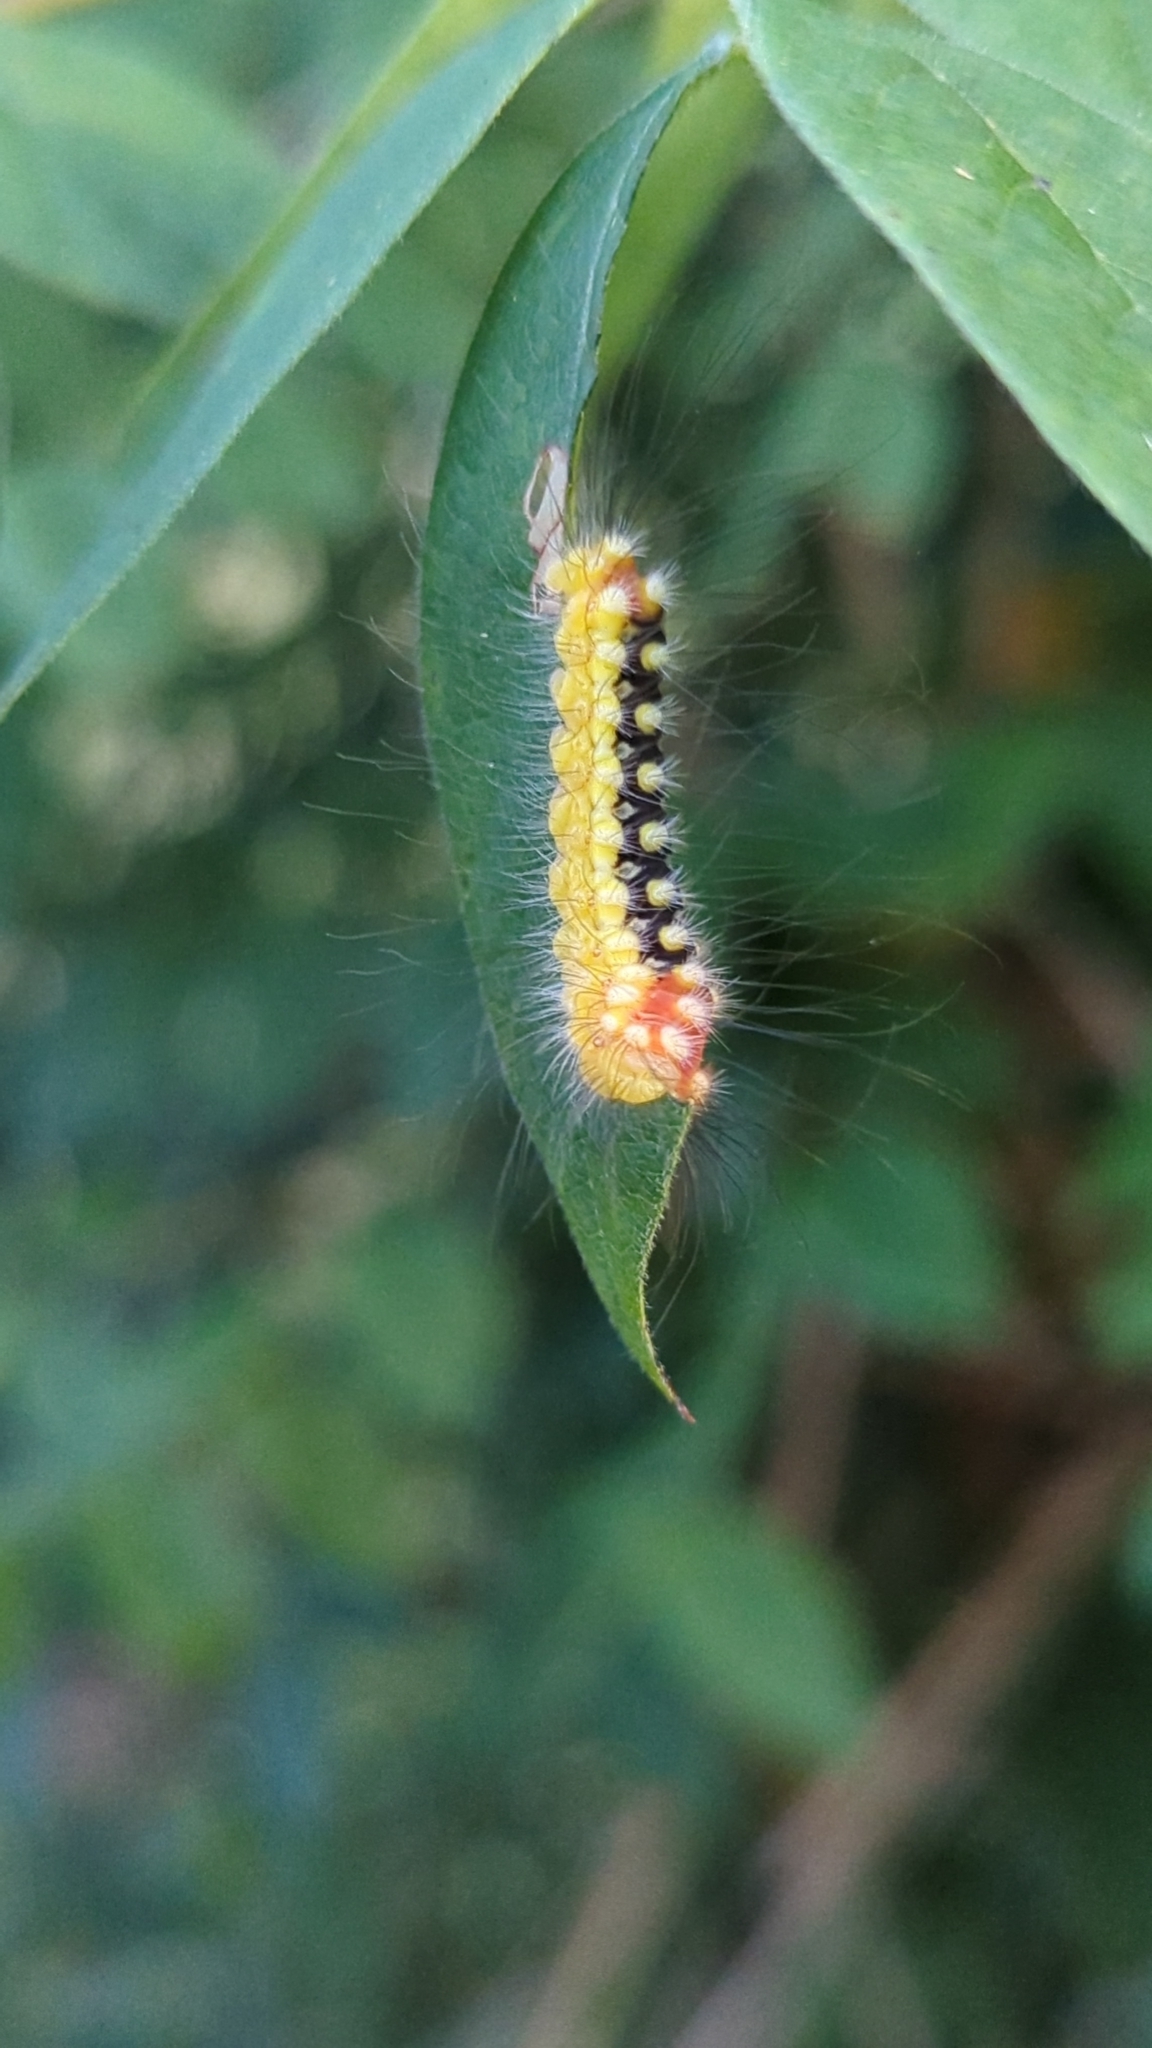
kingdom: Animalia
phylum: Arthropoda
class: Insecta
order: Lepidoptera
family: Megalopygidae
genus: Norape
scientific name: Norape cretata
